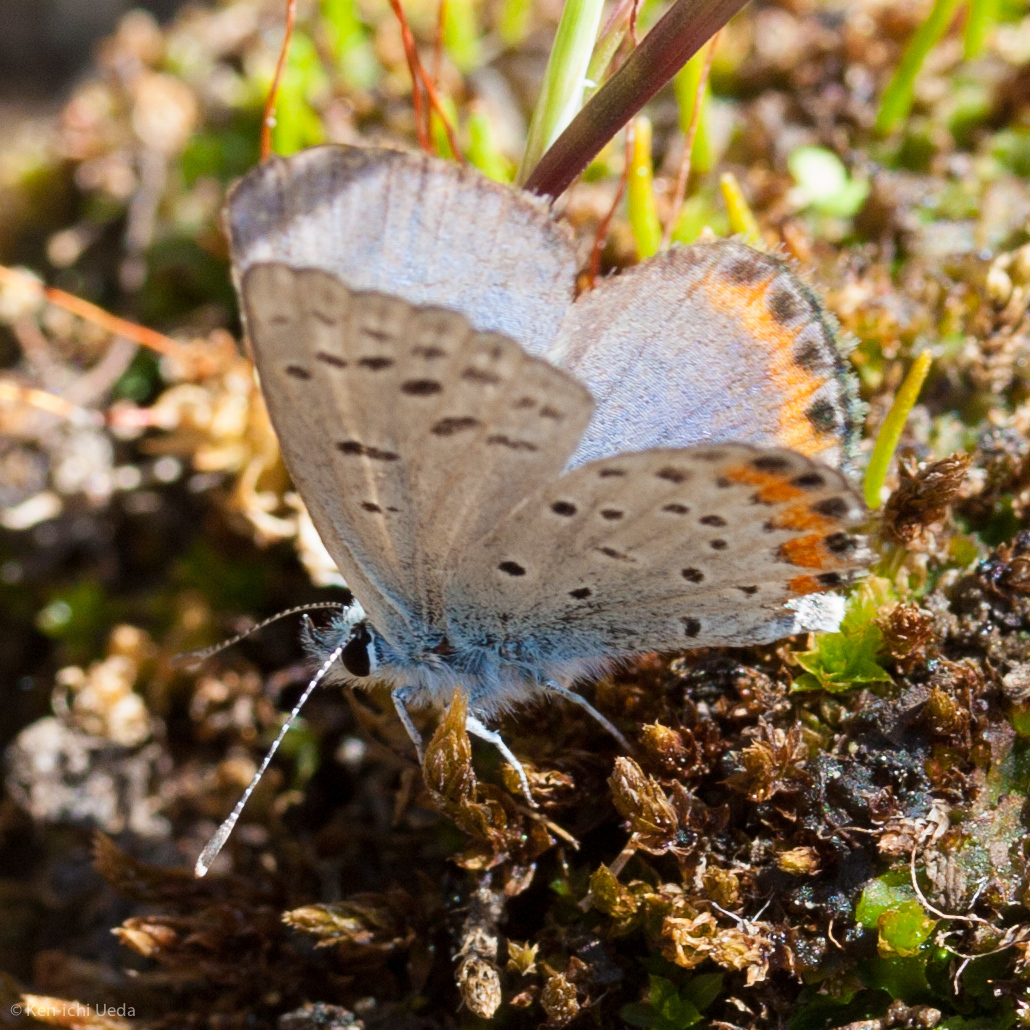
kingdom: Animalia
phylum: Arthropoda
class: Insecta
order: Lepidoptera
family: Lycaenidae
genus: Icaricia
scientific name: Icaricia acmon
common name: Acmon blue
